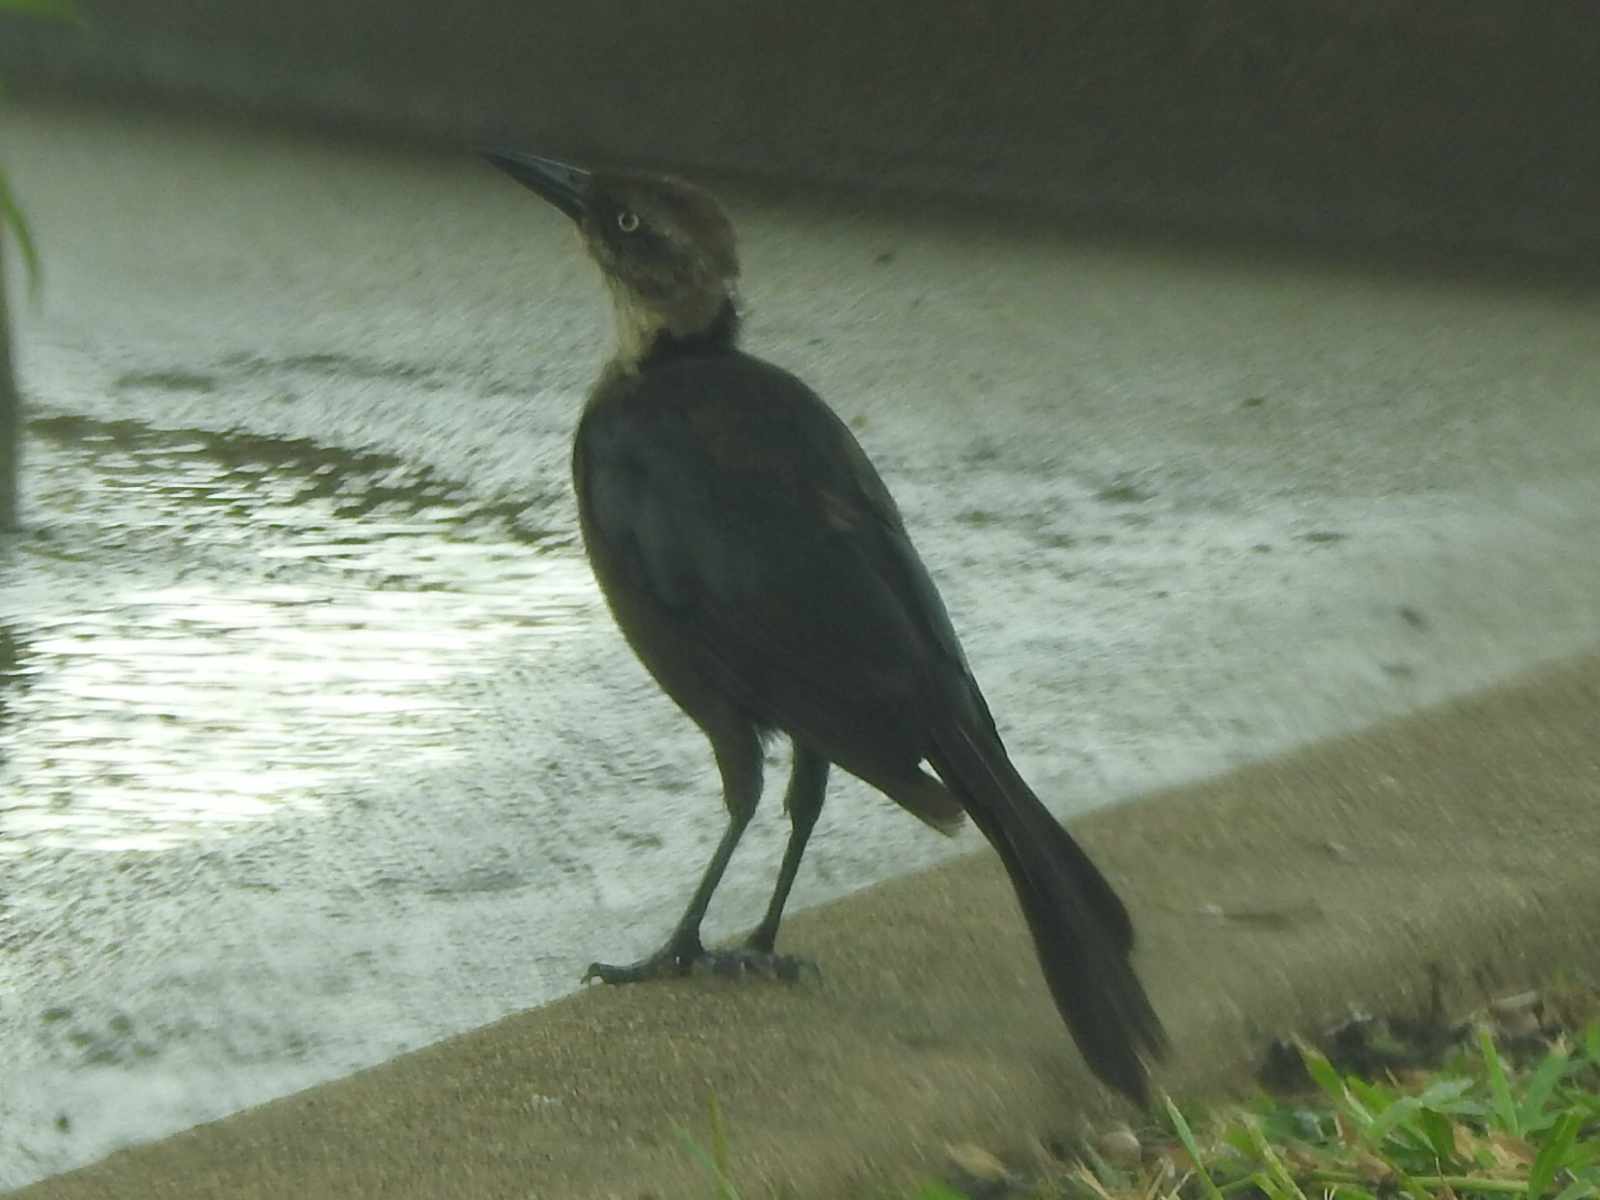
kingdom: Animalia
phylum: Chordata
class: Aves
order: Passeriformes
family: Icteridae
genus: Quiscalus
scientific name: Quiscalus mexicanus
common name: Great-tailed grackle
